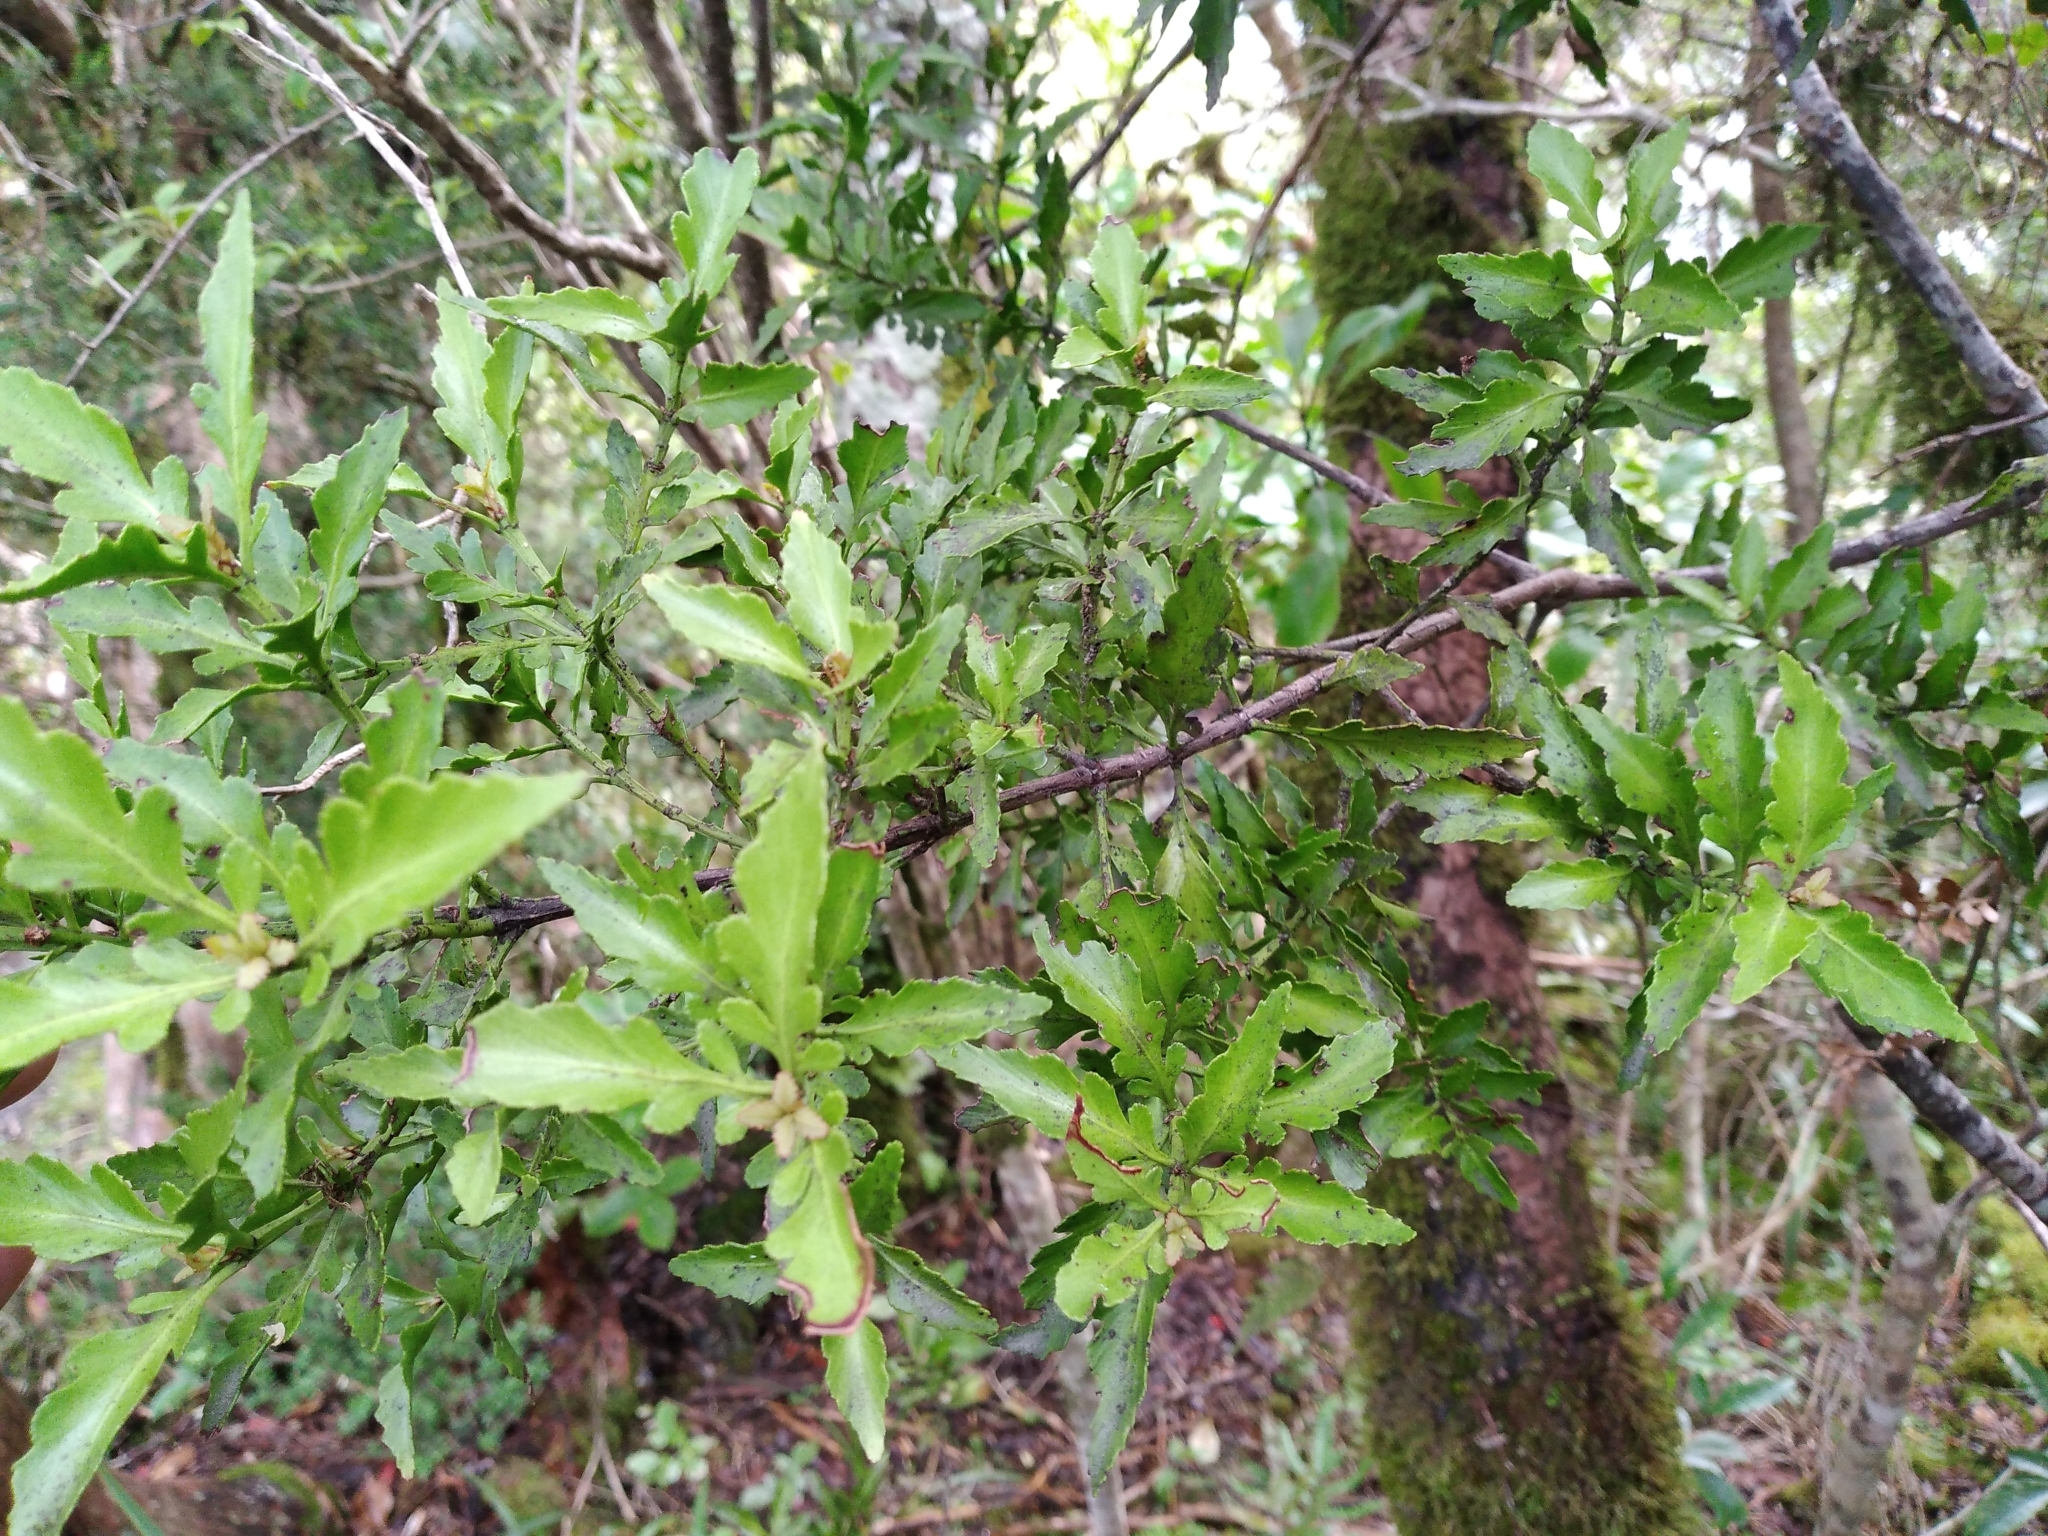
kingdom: Plantae
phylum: Tracheophyta
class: Pinopsida
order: Pinales
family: Phyllocladaceae
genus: Phyllocladus
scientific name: Phyllocladus trichomanoides
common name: Celery pine
